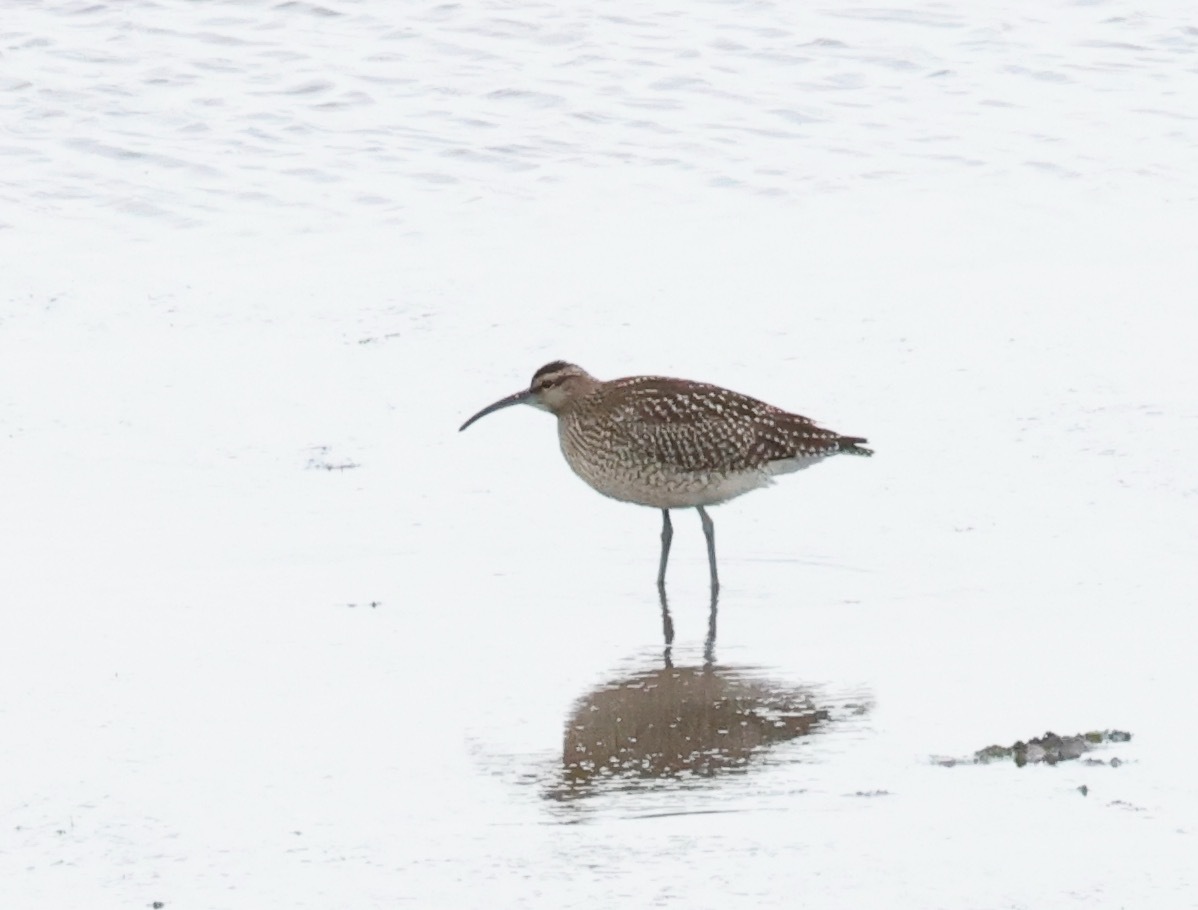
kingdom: Animalia
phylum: Chordata
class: Aves
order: Charadriiformes
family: Scolopacidae
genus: Numenius
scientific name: Numenius phaeopus
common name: Whimbrel
